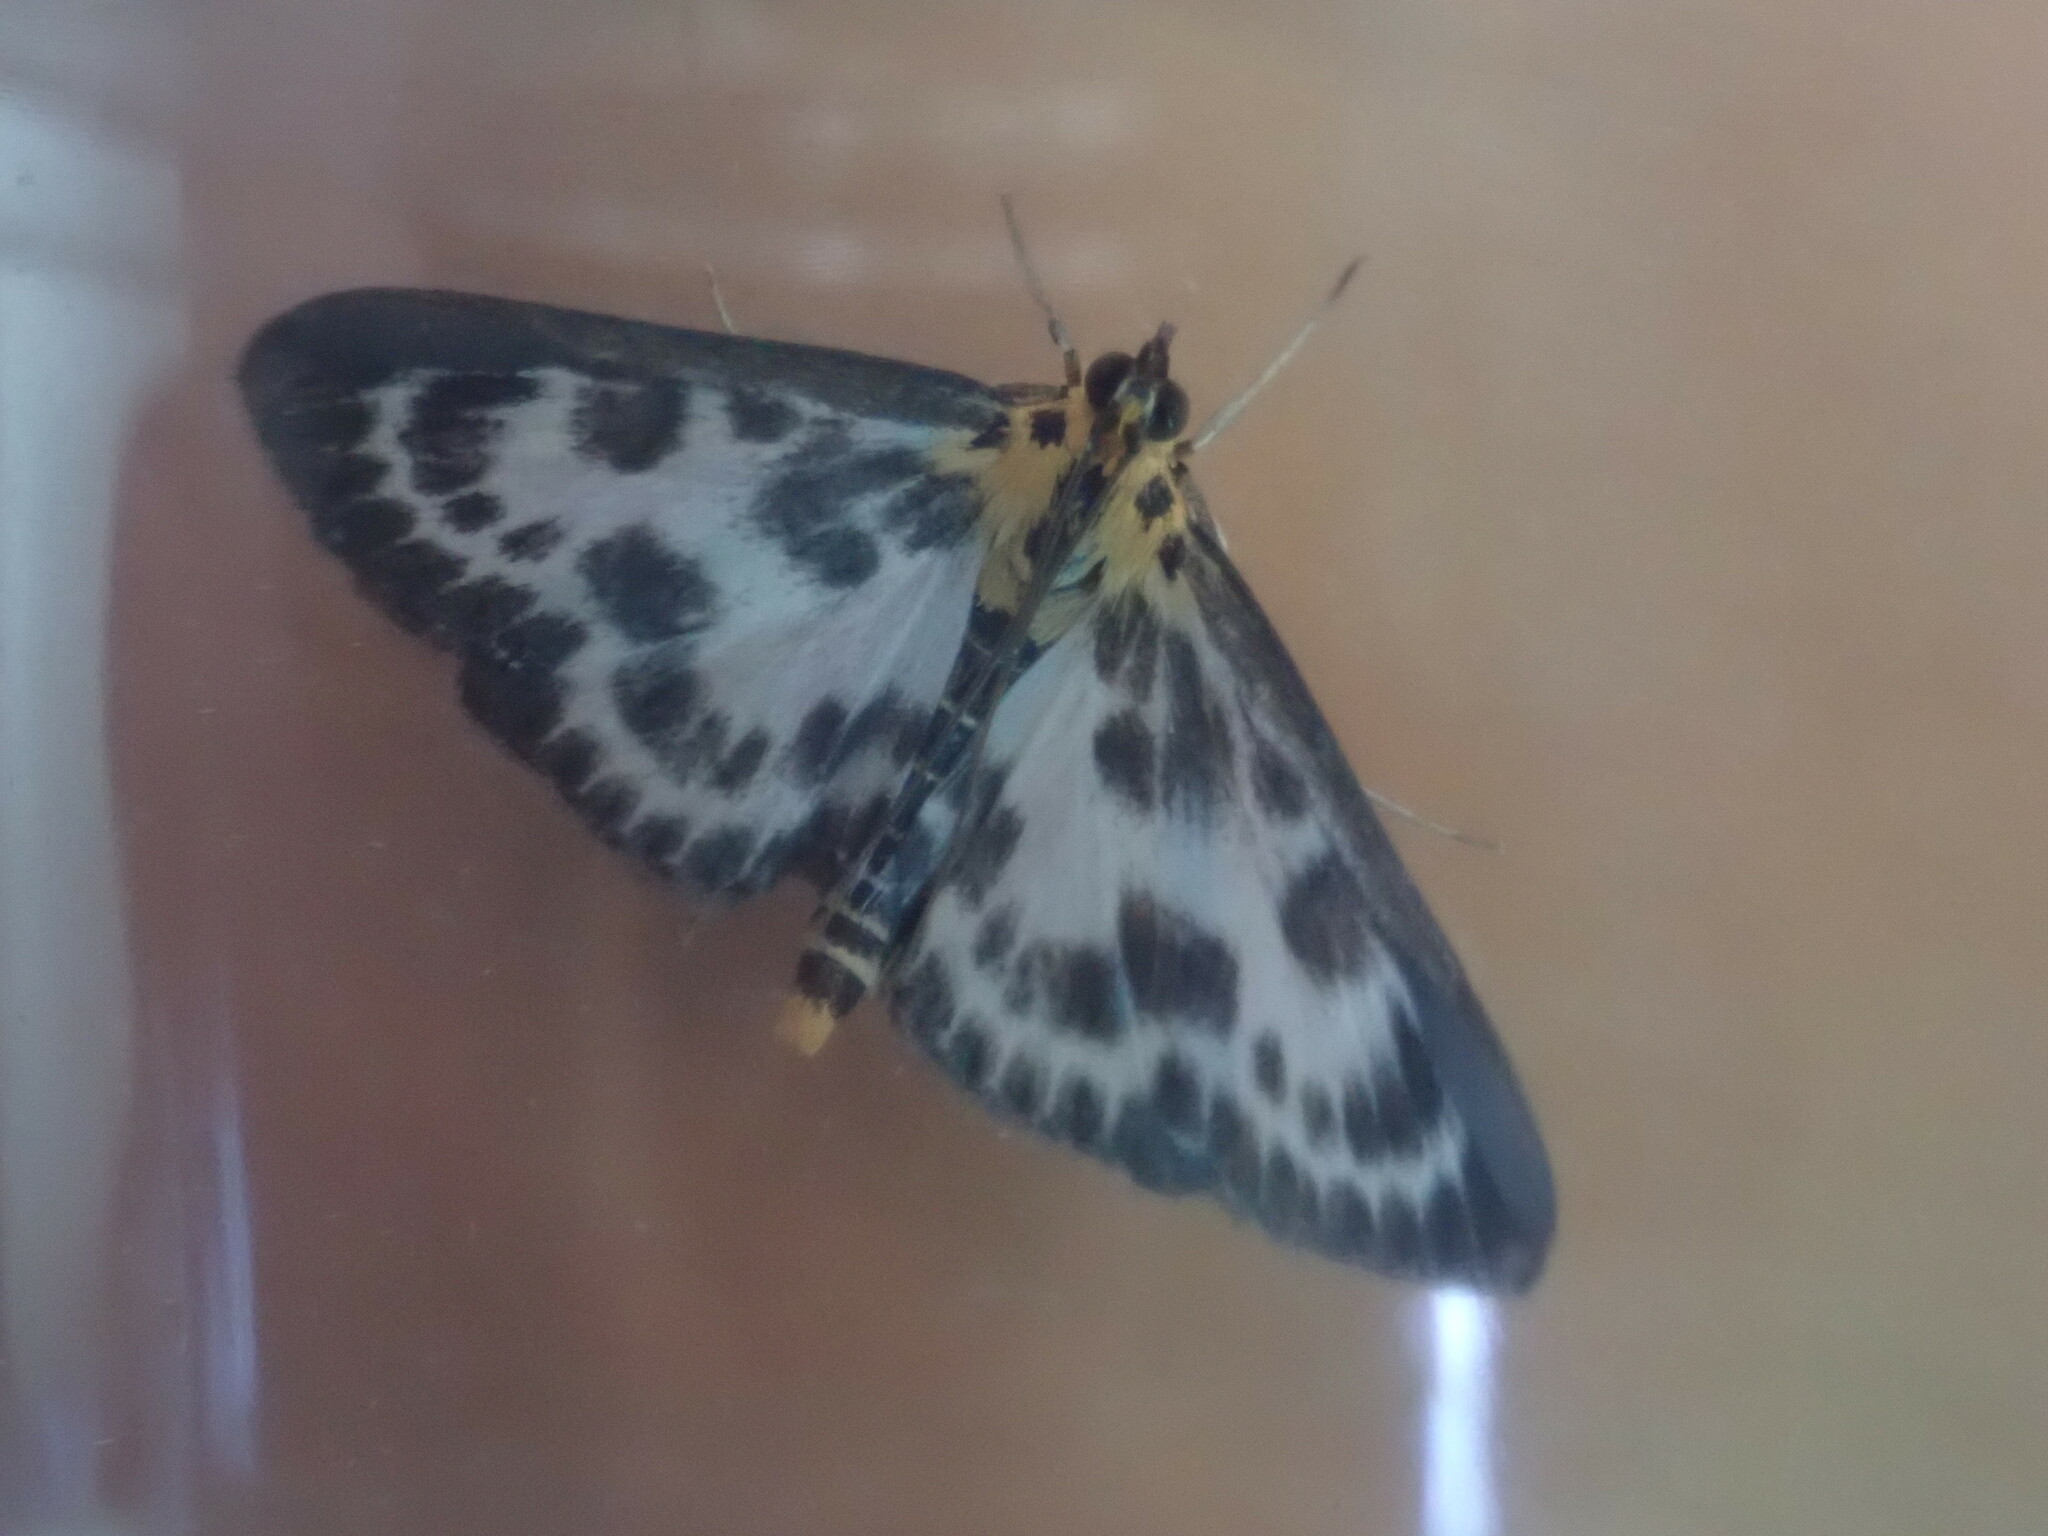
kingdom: Animalia
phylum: Arthropoda
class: Insecta
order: Lepidoptera
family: Crambidae
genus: Anania
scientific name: Anania hortulata
